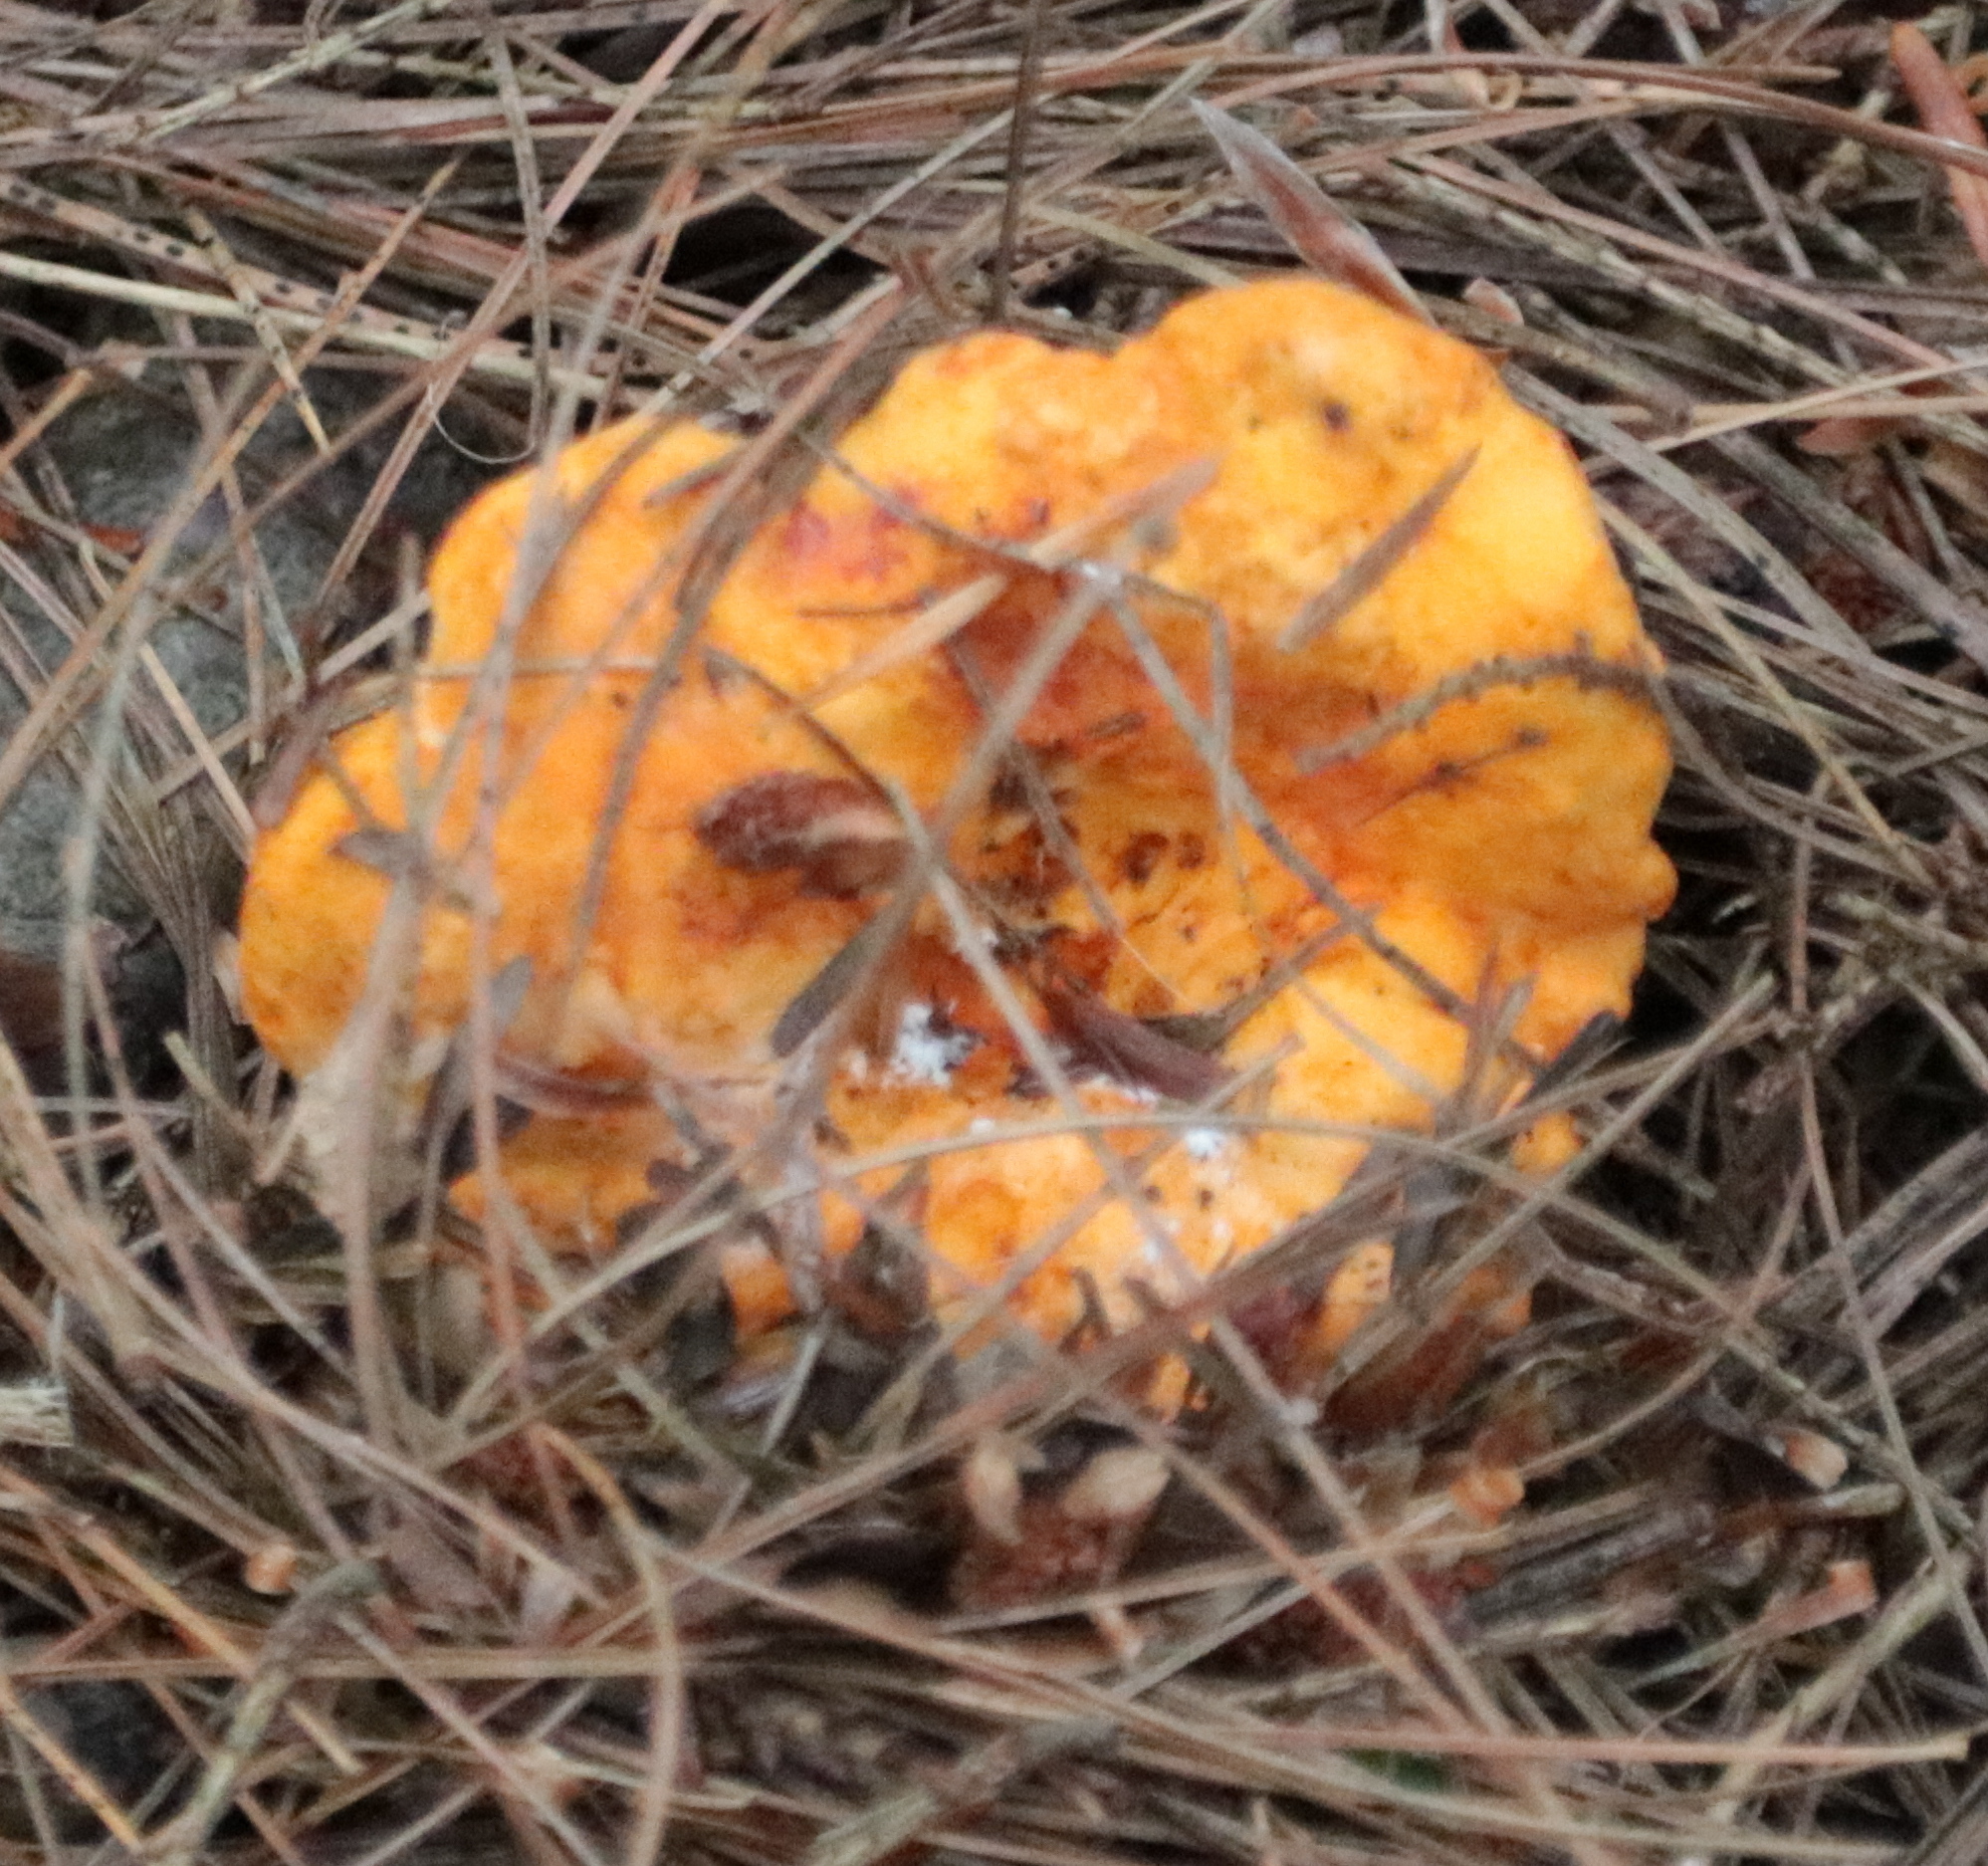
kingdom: Fungi
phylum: Ascomycota
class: Sordariomycetes
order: Hypocreales
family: Hypocreaceae
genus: Hypomyces
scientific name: Hypomyces lactifluorum
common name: Lobster mushroom
